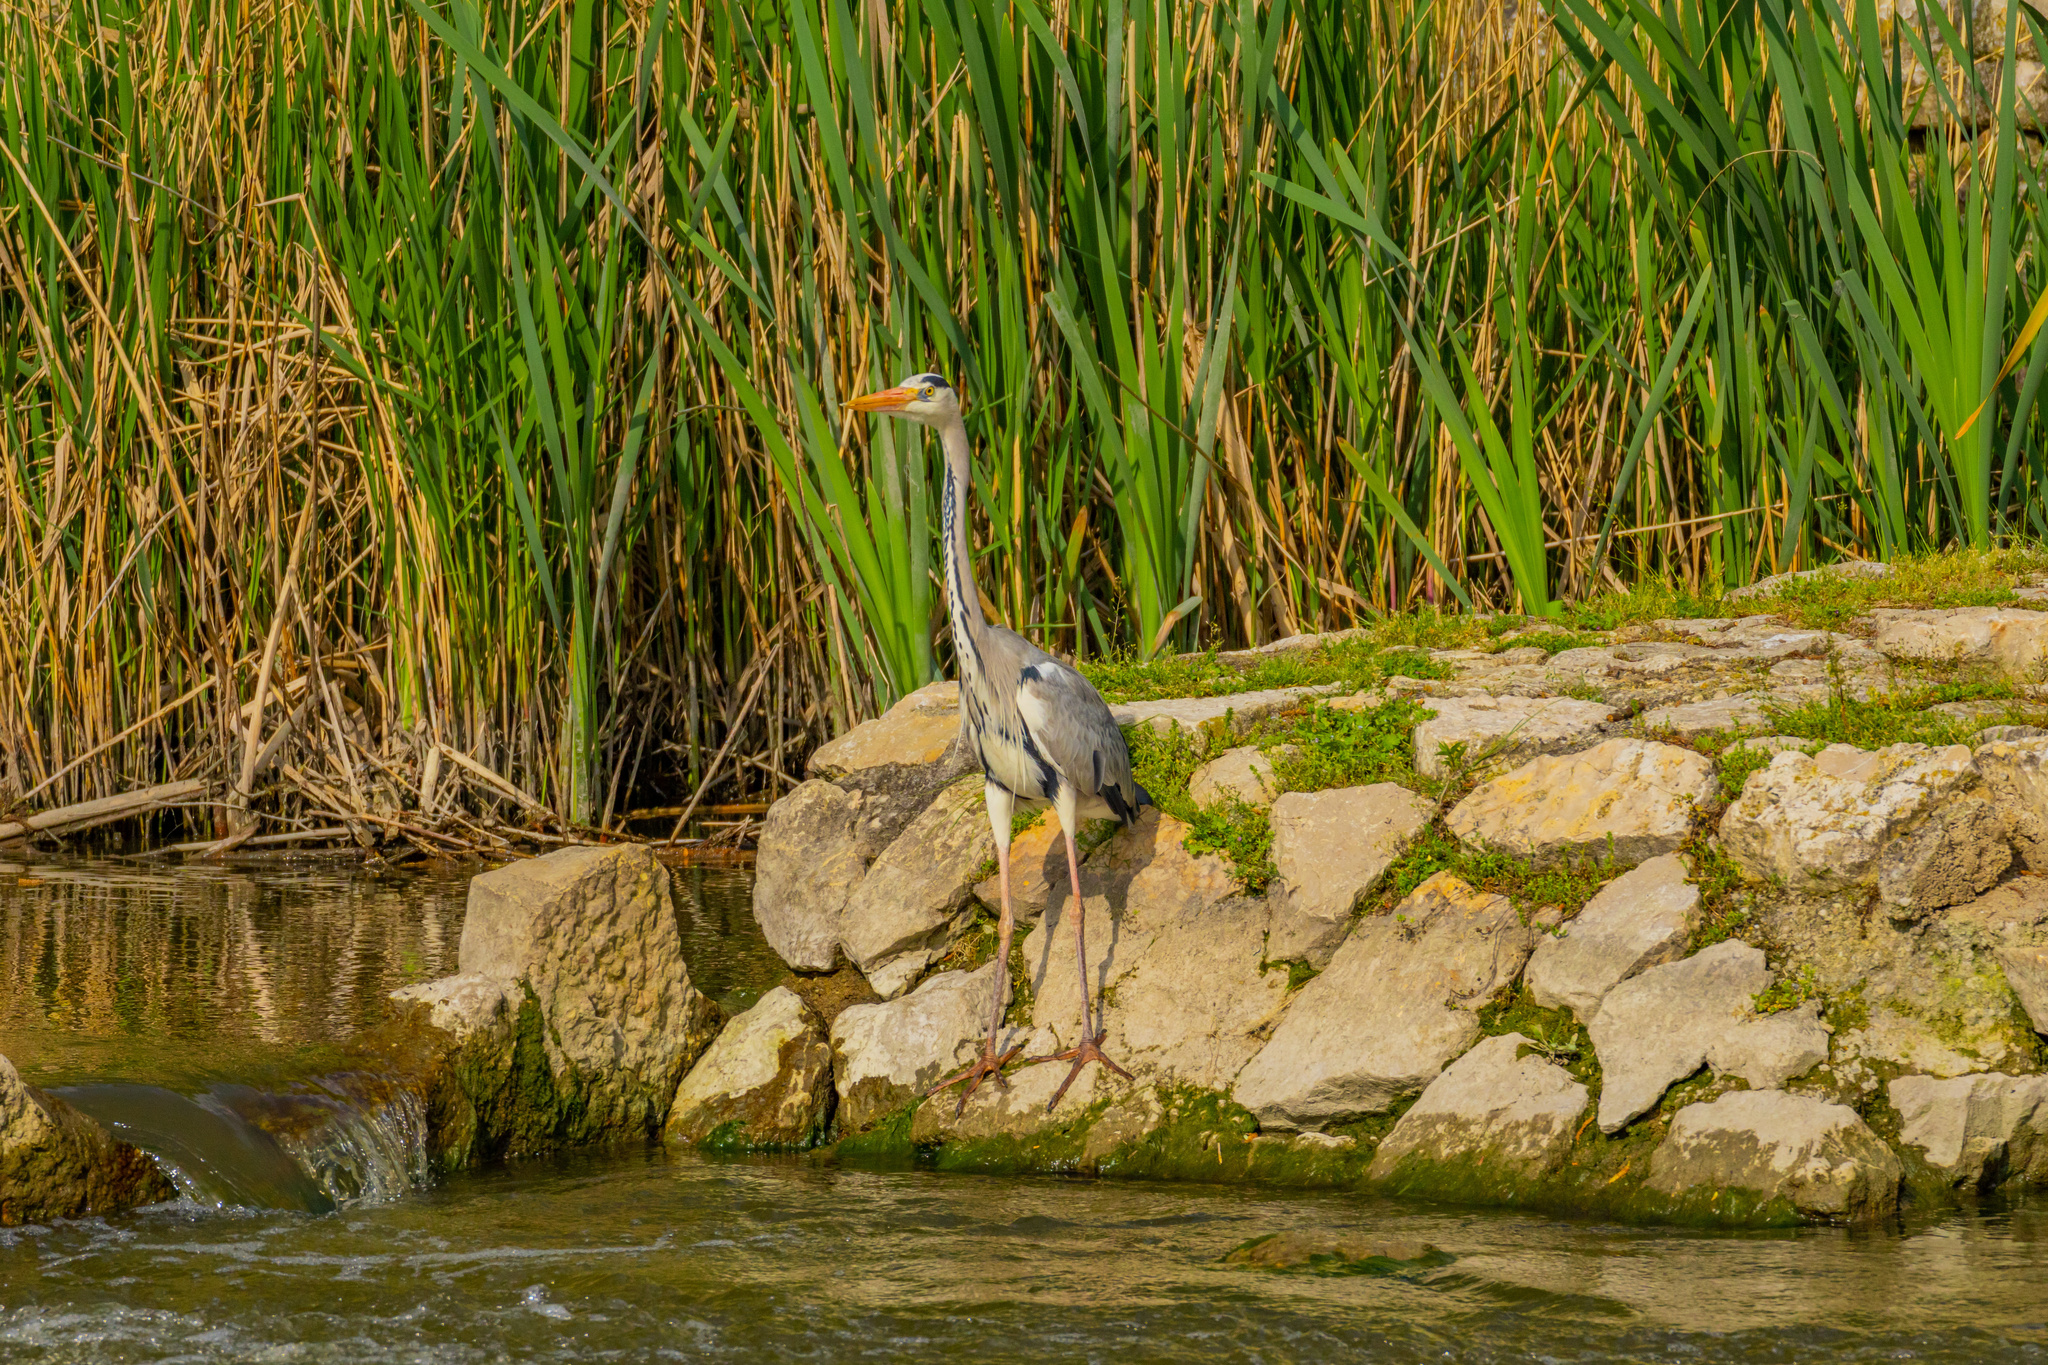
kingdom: Animalia
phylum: Chordata
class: Aves
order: Pelecaniformes
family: Ardeidae
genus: Ardea
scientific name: Ardea cinerea
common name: Grey heron
